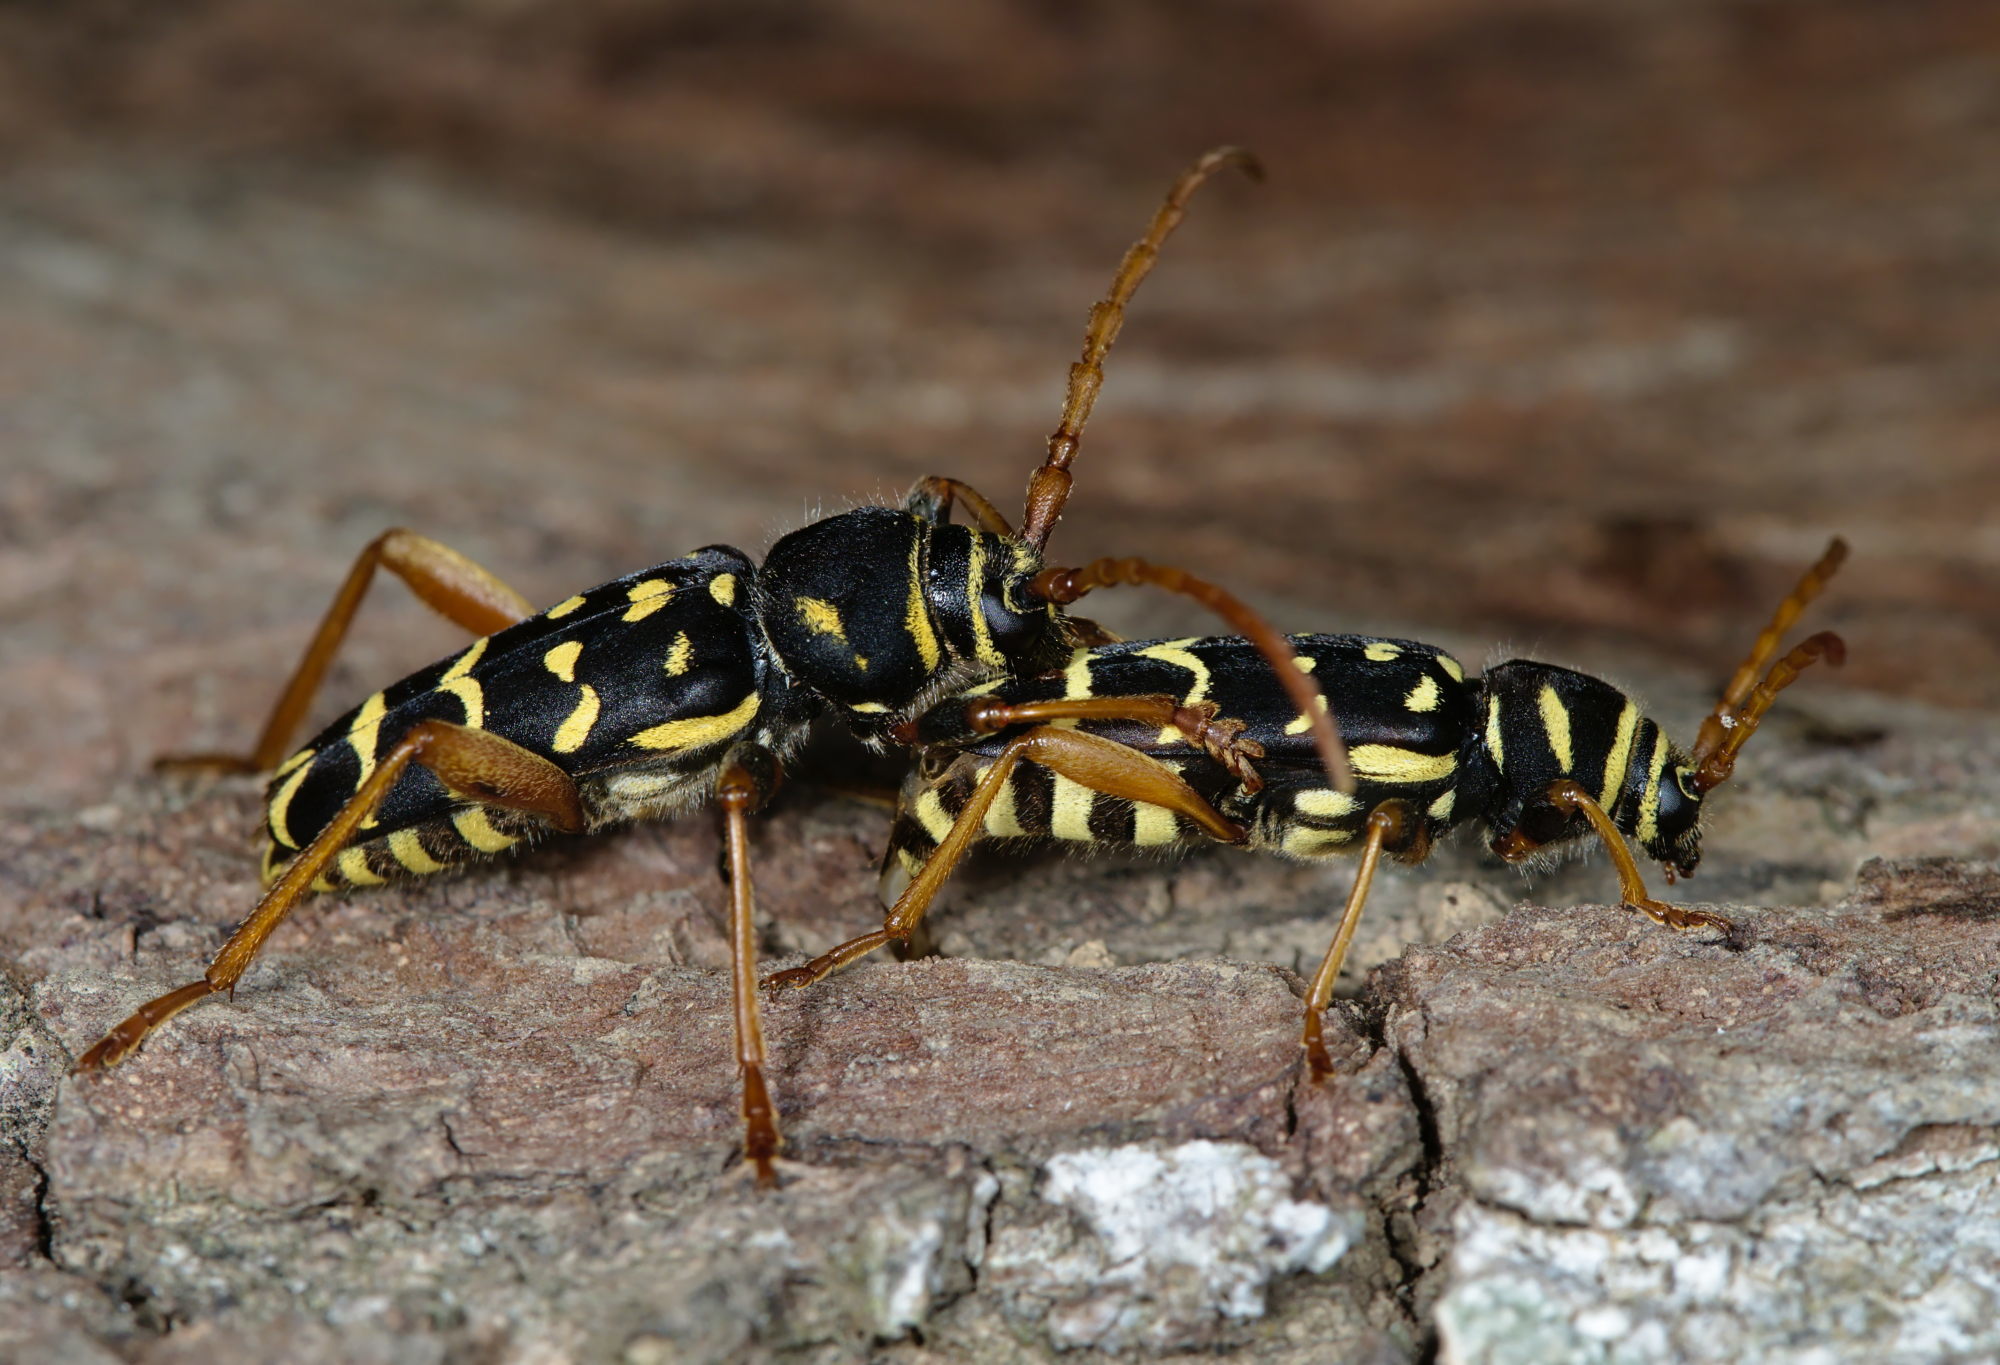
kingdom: Animalia
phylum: Arthropoda
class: Insecta
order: Coleoptera
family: Cerambycidae
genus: Plagionotus
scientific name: Plagionotus arcuatus
